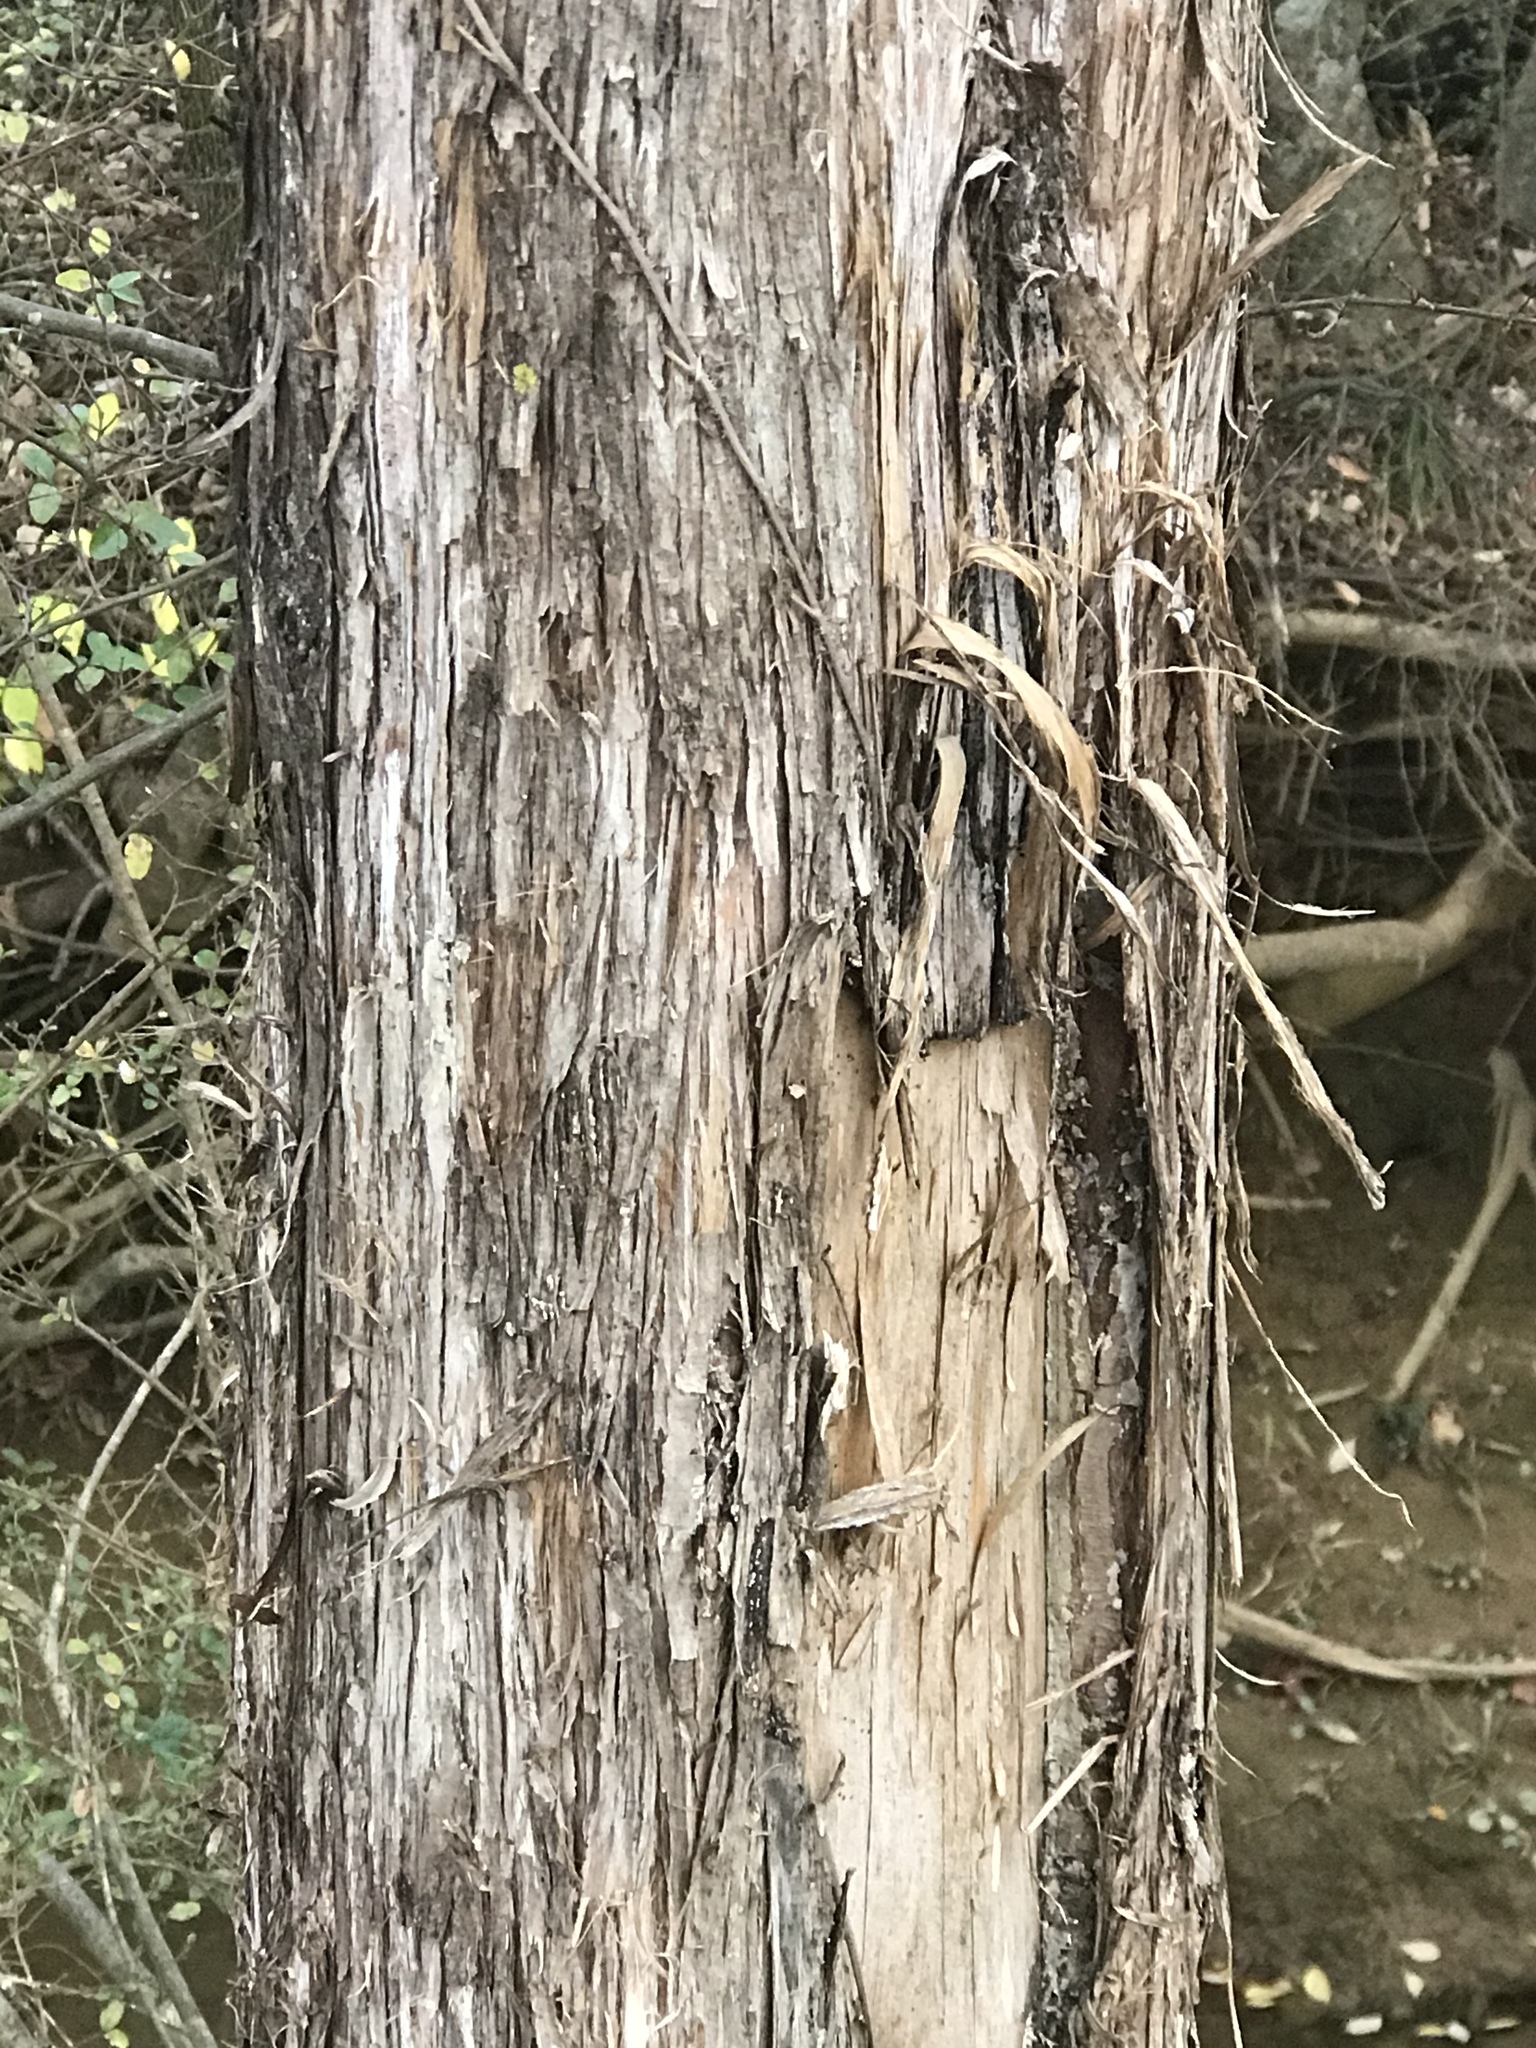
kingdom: Plantae
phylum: Tracheophyta
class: Pinopsida
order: Pinales
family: Cupressaceae
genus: Juniperus
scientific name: Juniperus virginiana
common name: Red juniper
